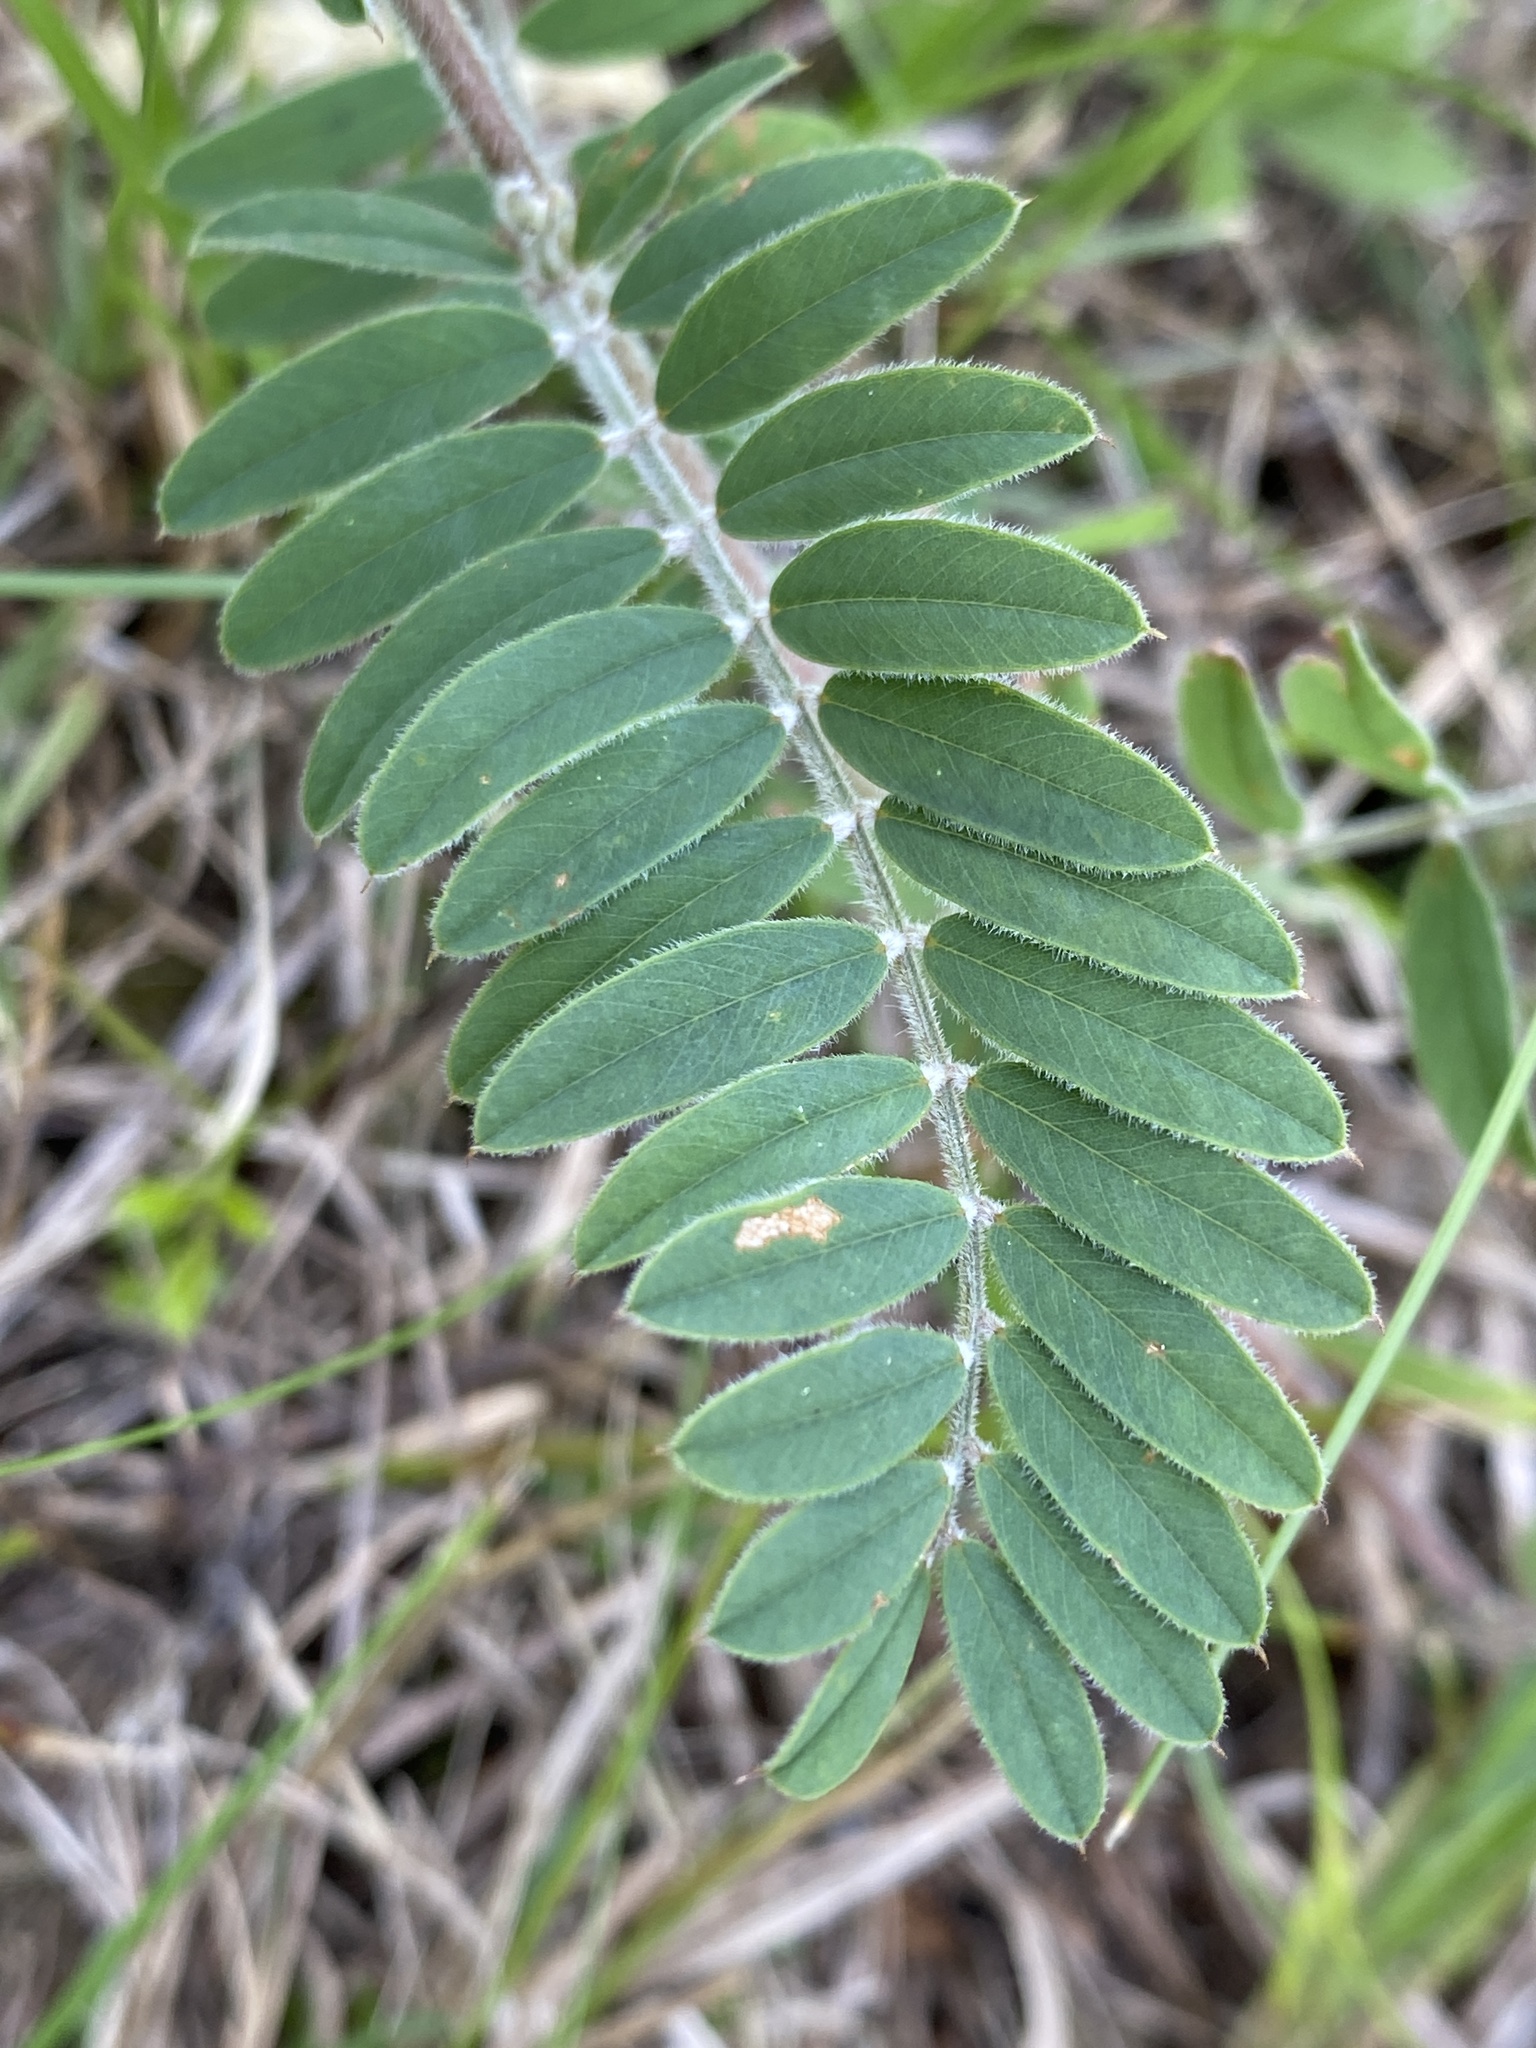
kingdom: Plantae
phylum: Tracheophyta
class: Magnoliopsida
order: Fabales
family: Fabaceae
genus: Tephrosia
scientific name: Tephrosia virginiana
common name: Rabbit-pea
